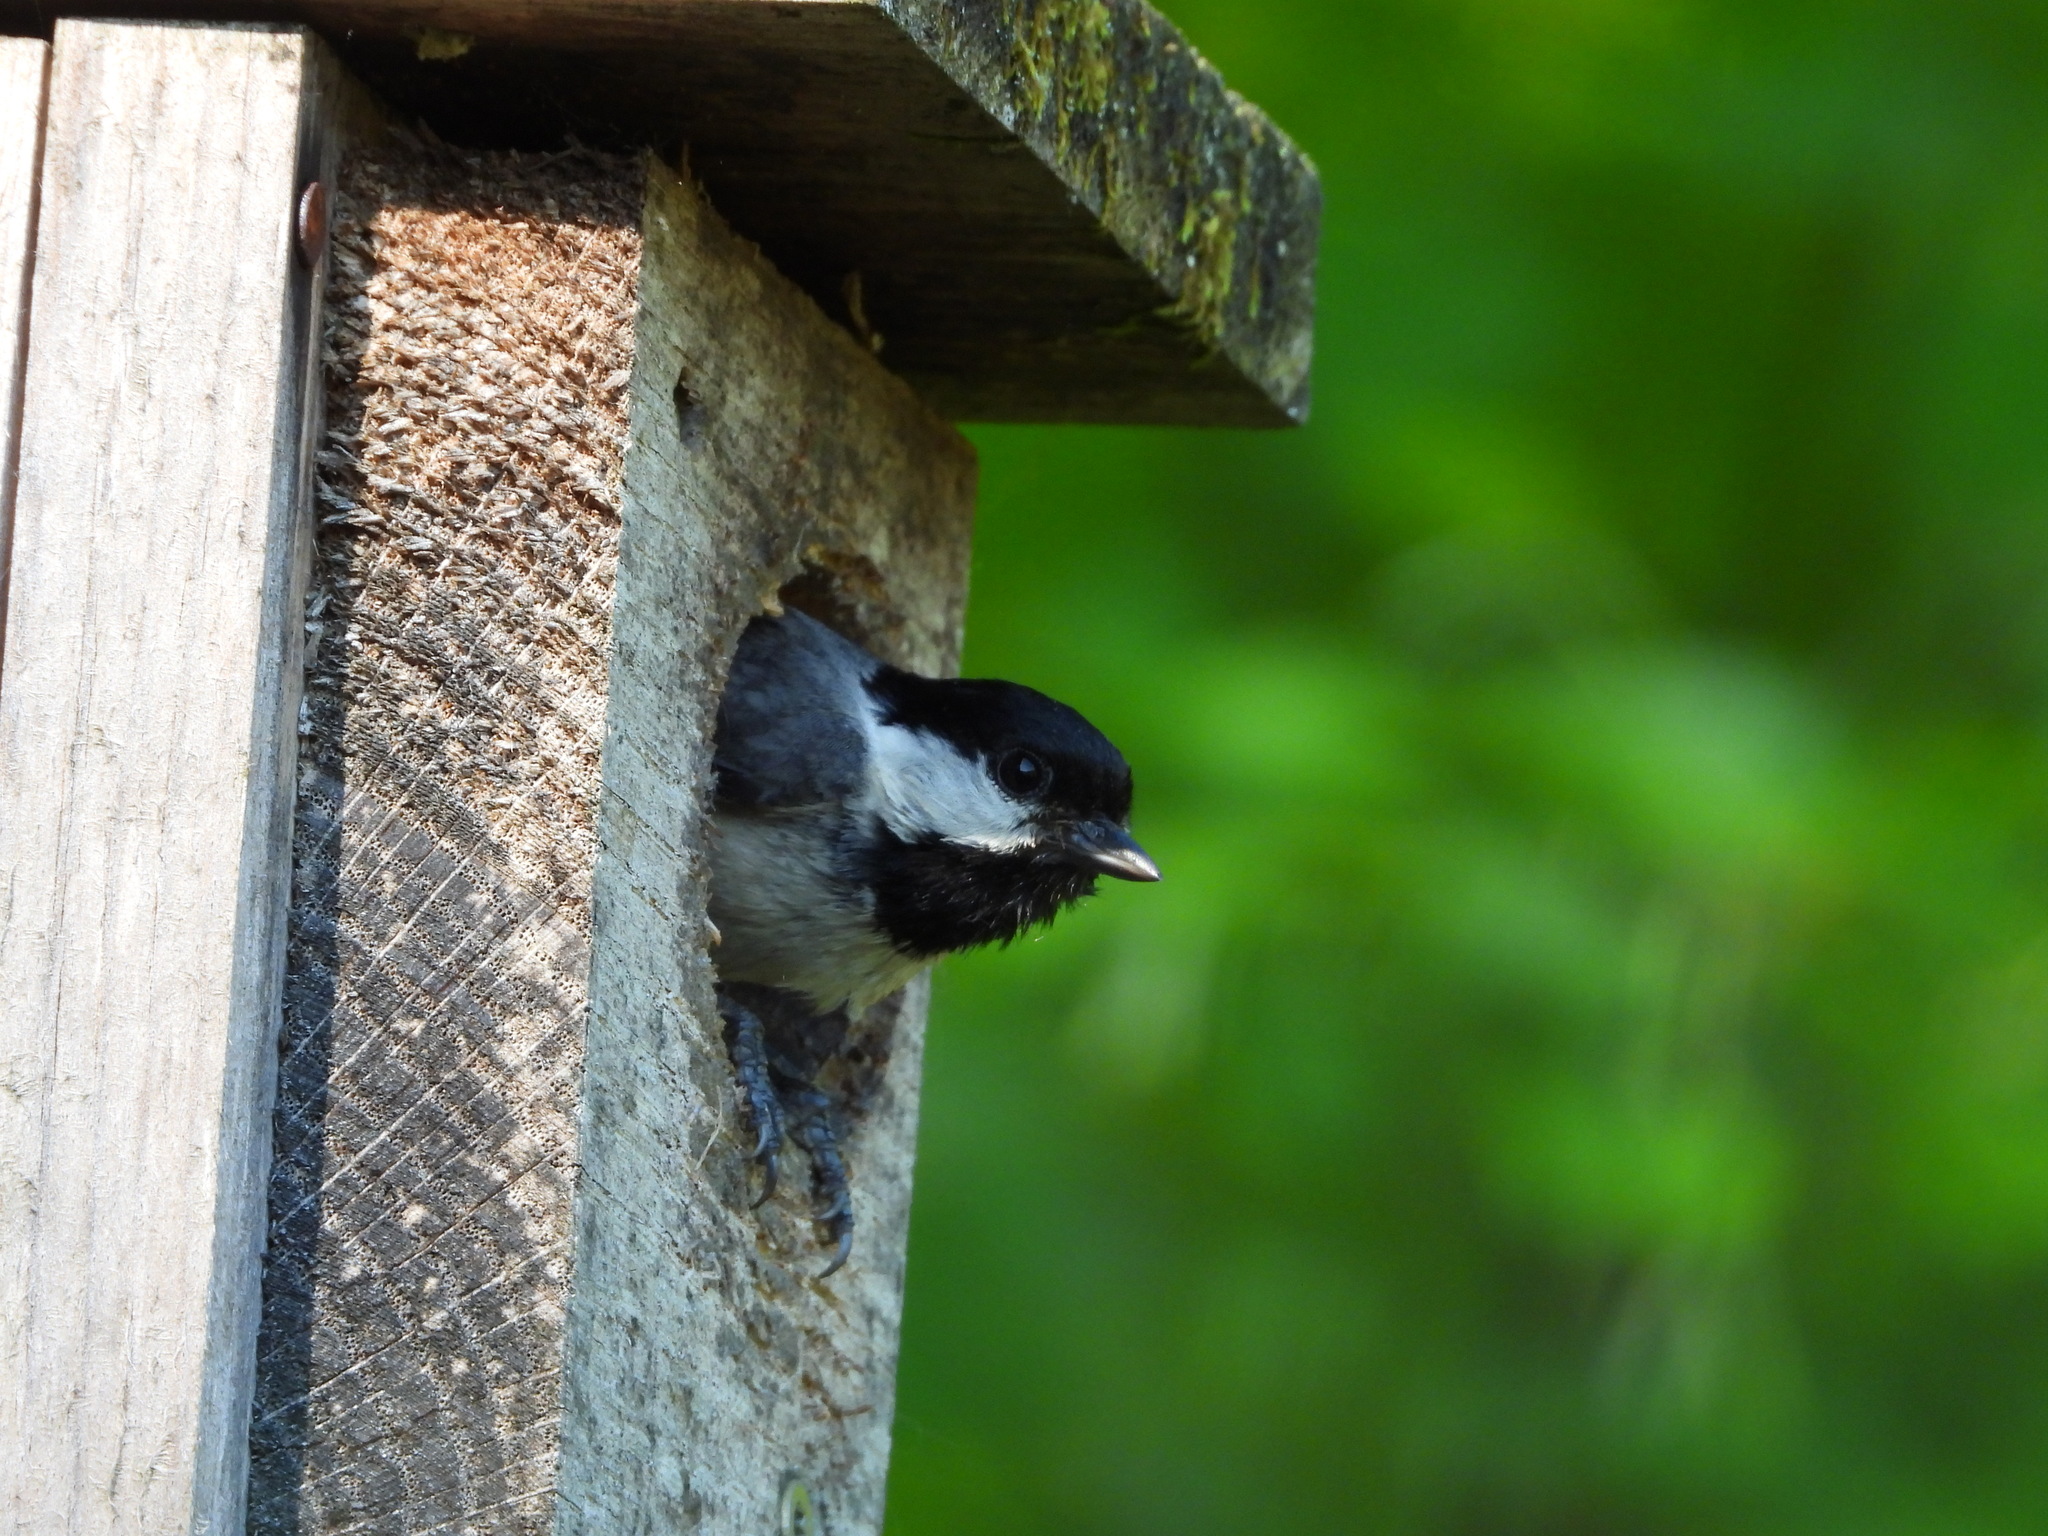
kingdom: Animalia
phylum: Chordata
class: Aves
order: Passeriformes
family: Paridae
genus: Poecile
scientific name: Poecile carolinensis
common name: Carolina chickadee
